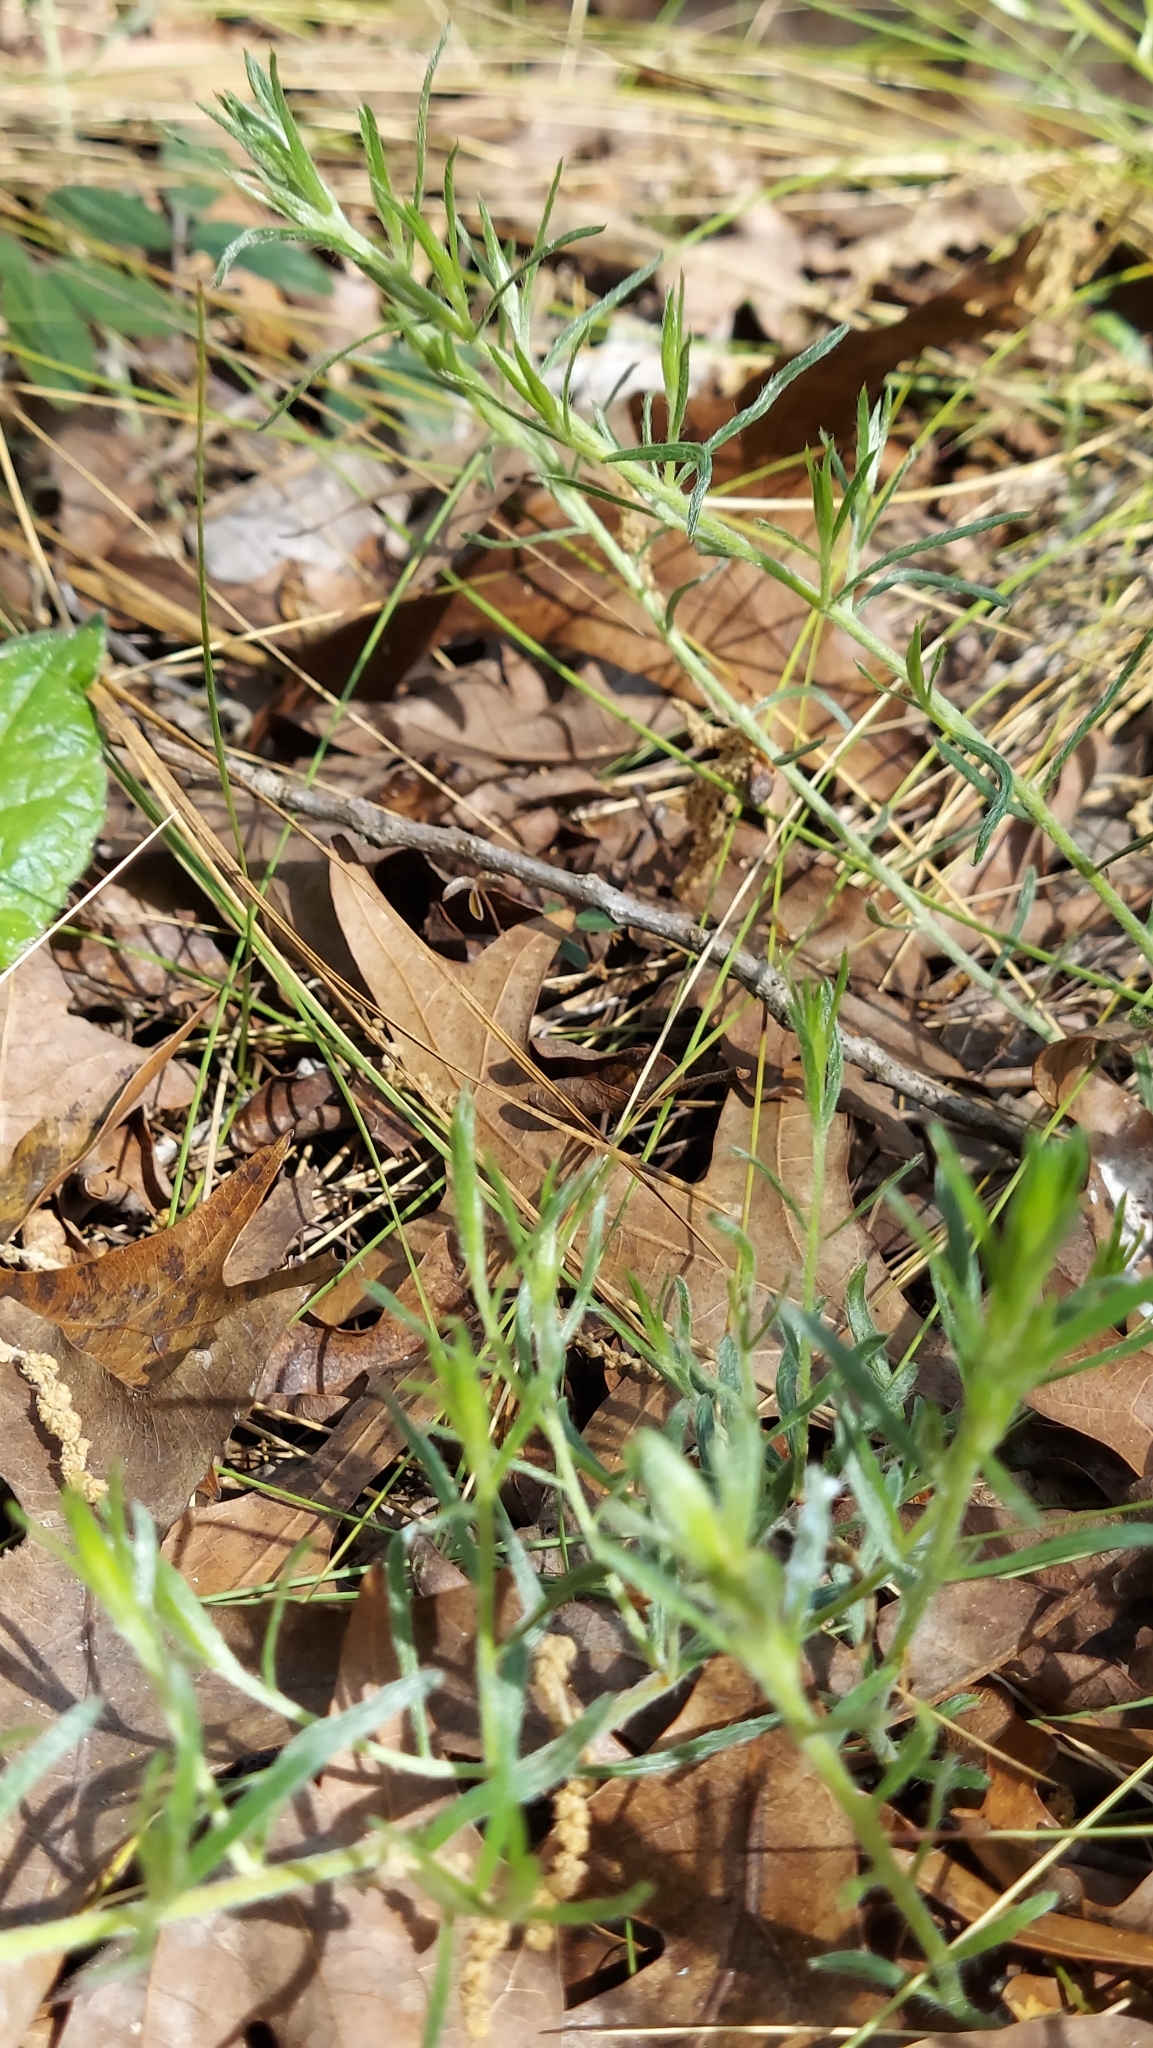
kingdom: Plantae
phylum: Tracheophyta
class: Magnoliopsida
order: Zygophyllales
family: Krameriaceae
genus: Krameria
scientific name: Krameria lanceolata
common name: Ratany
